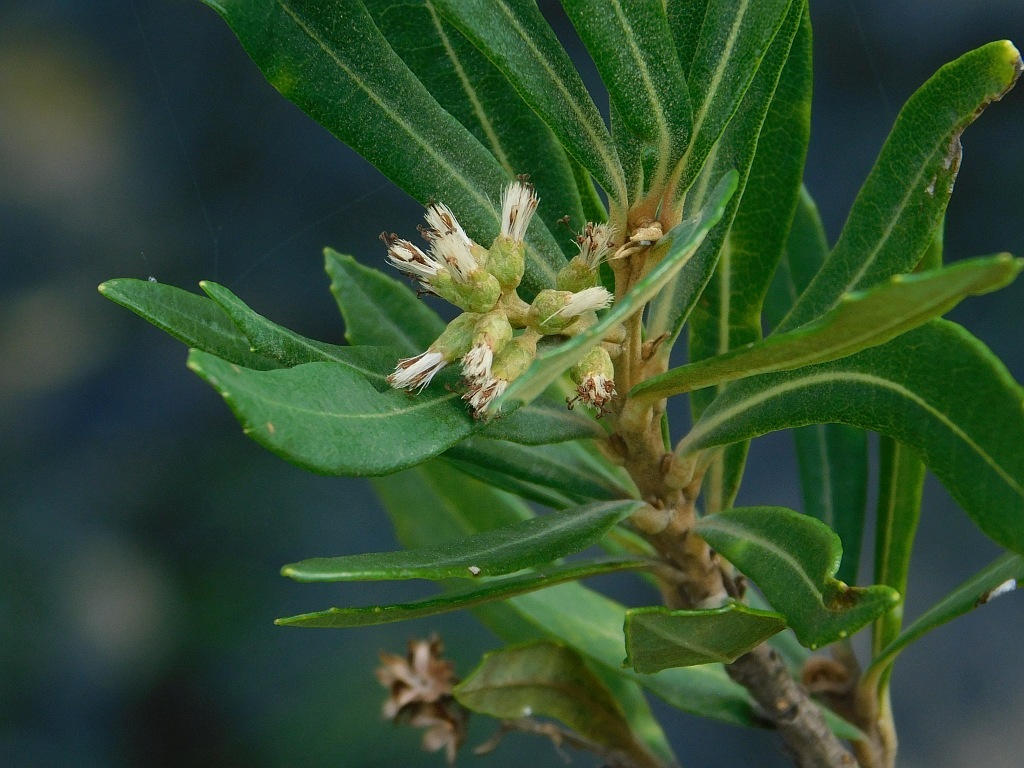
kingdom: Plantae
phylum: Tracheophyta
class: Magnoliopsida
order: Asterales
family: Asteraceae
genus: Brachylaena
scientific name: Brachylaena neriifolia
